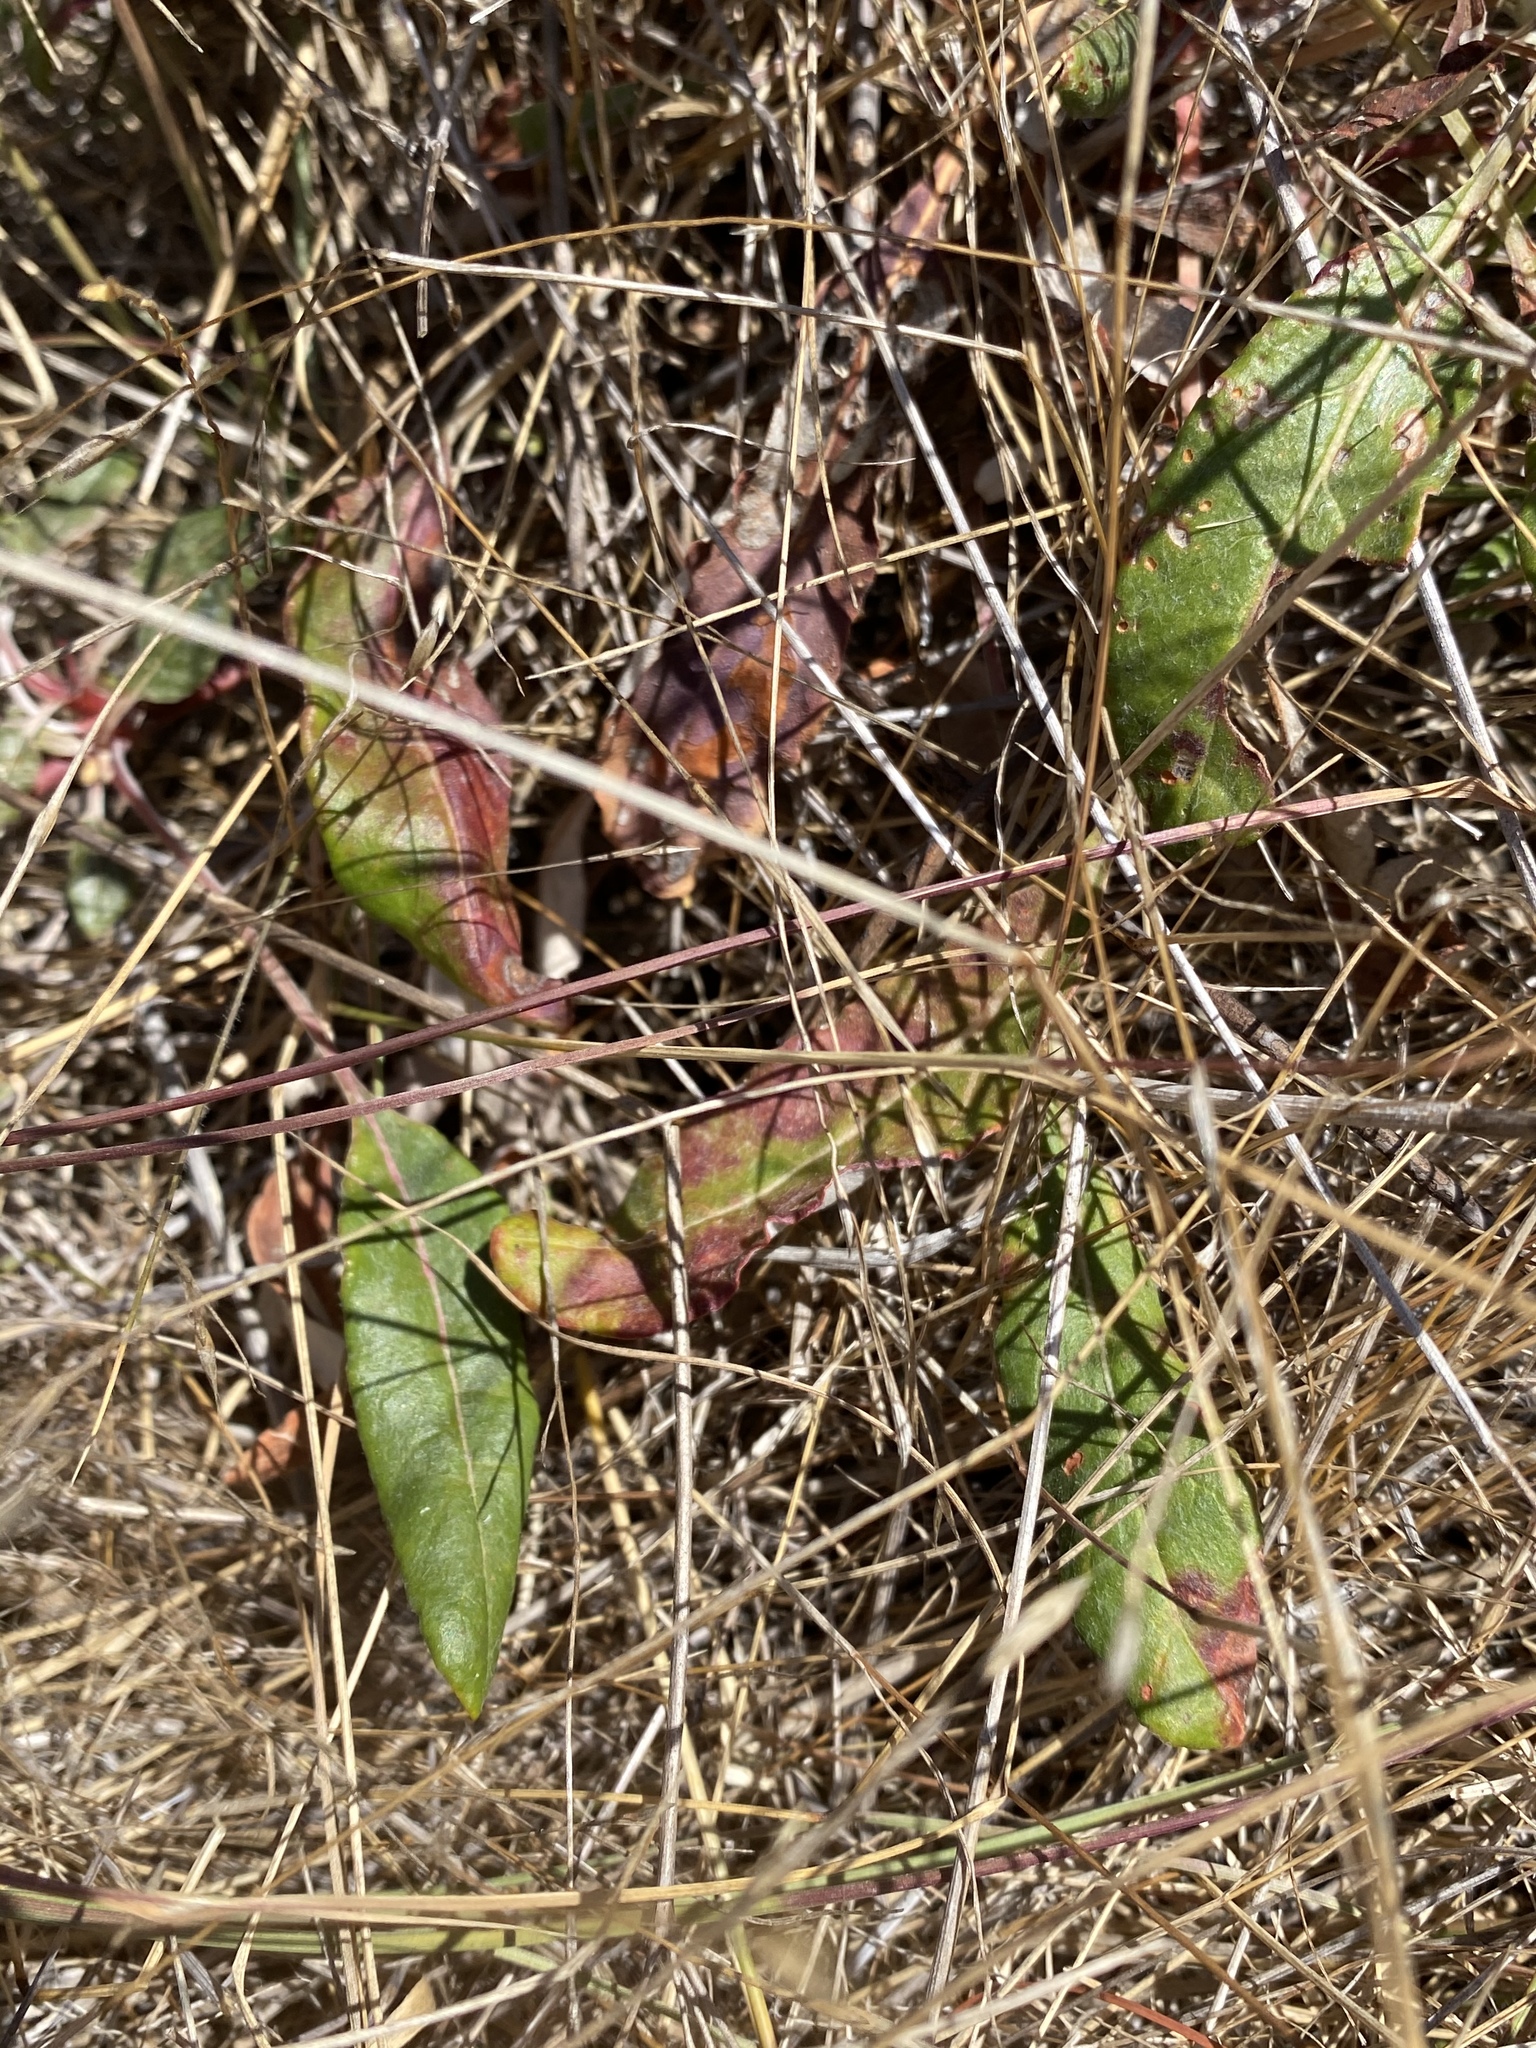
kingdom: Plantae
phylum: Tracheophyta
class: Magnoliopsida
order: Caryophyllales
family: Polygonaceae
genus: Eriogonum
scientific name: Eriogonum nudum
